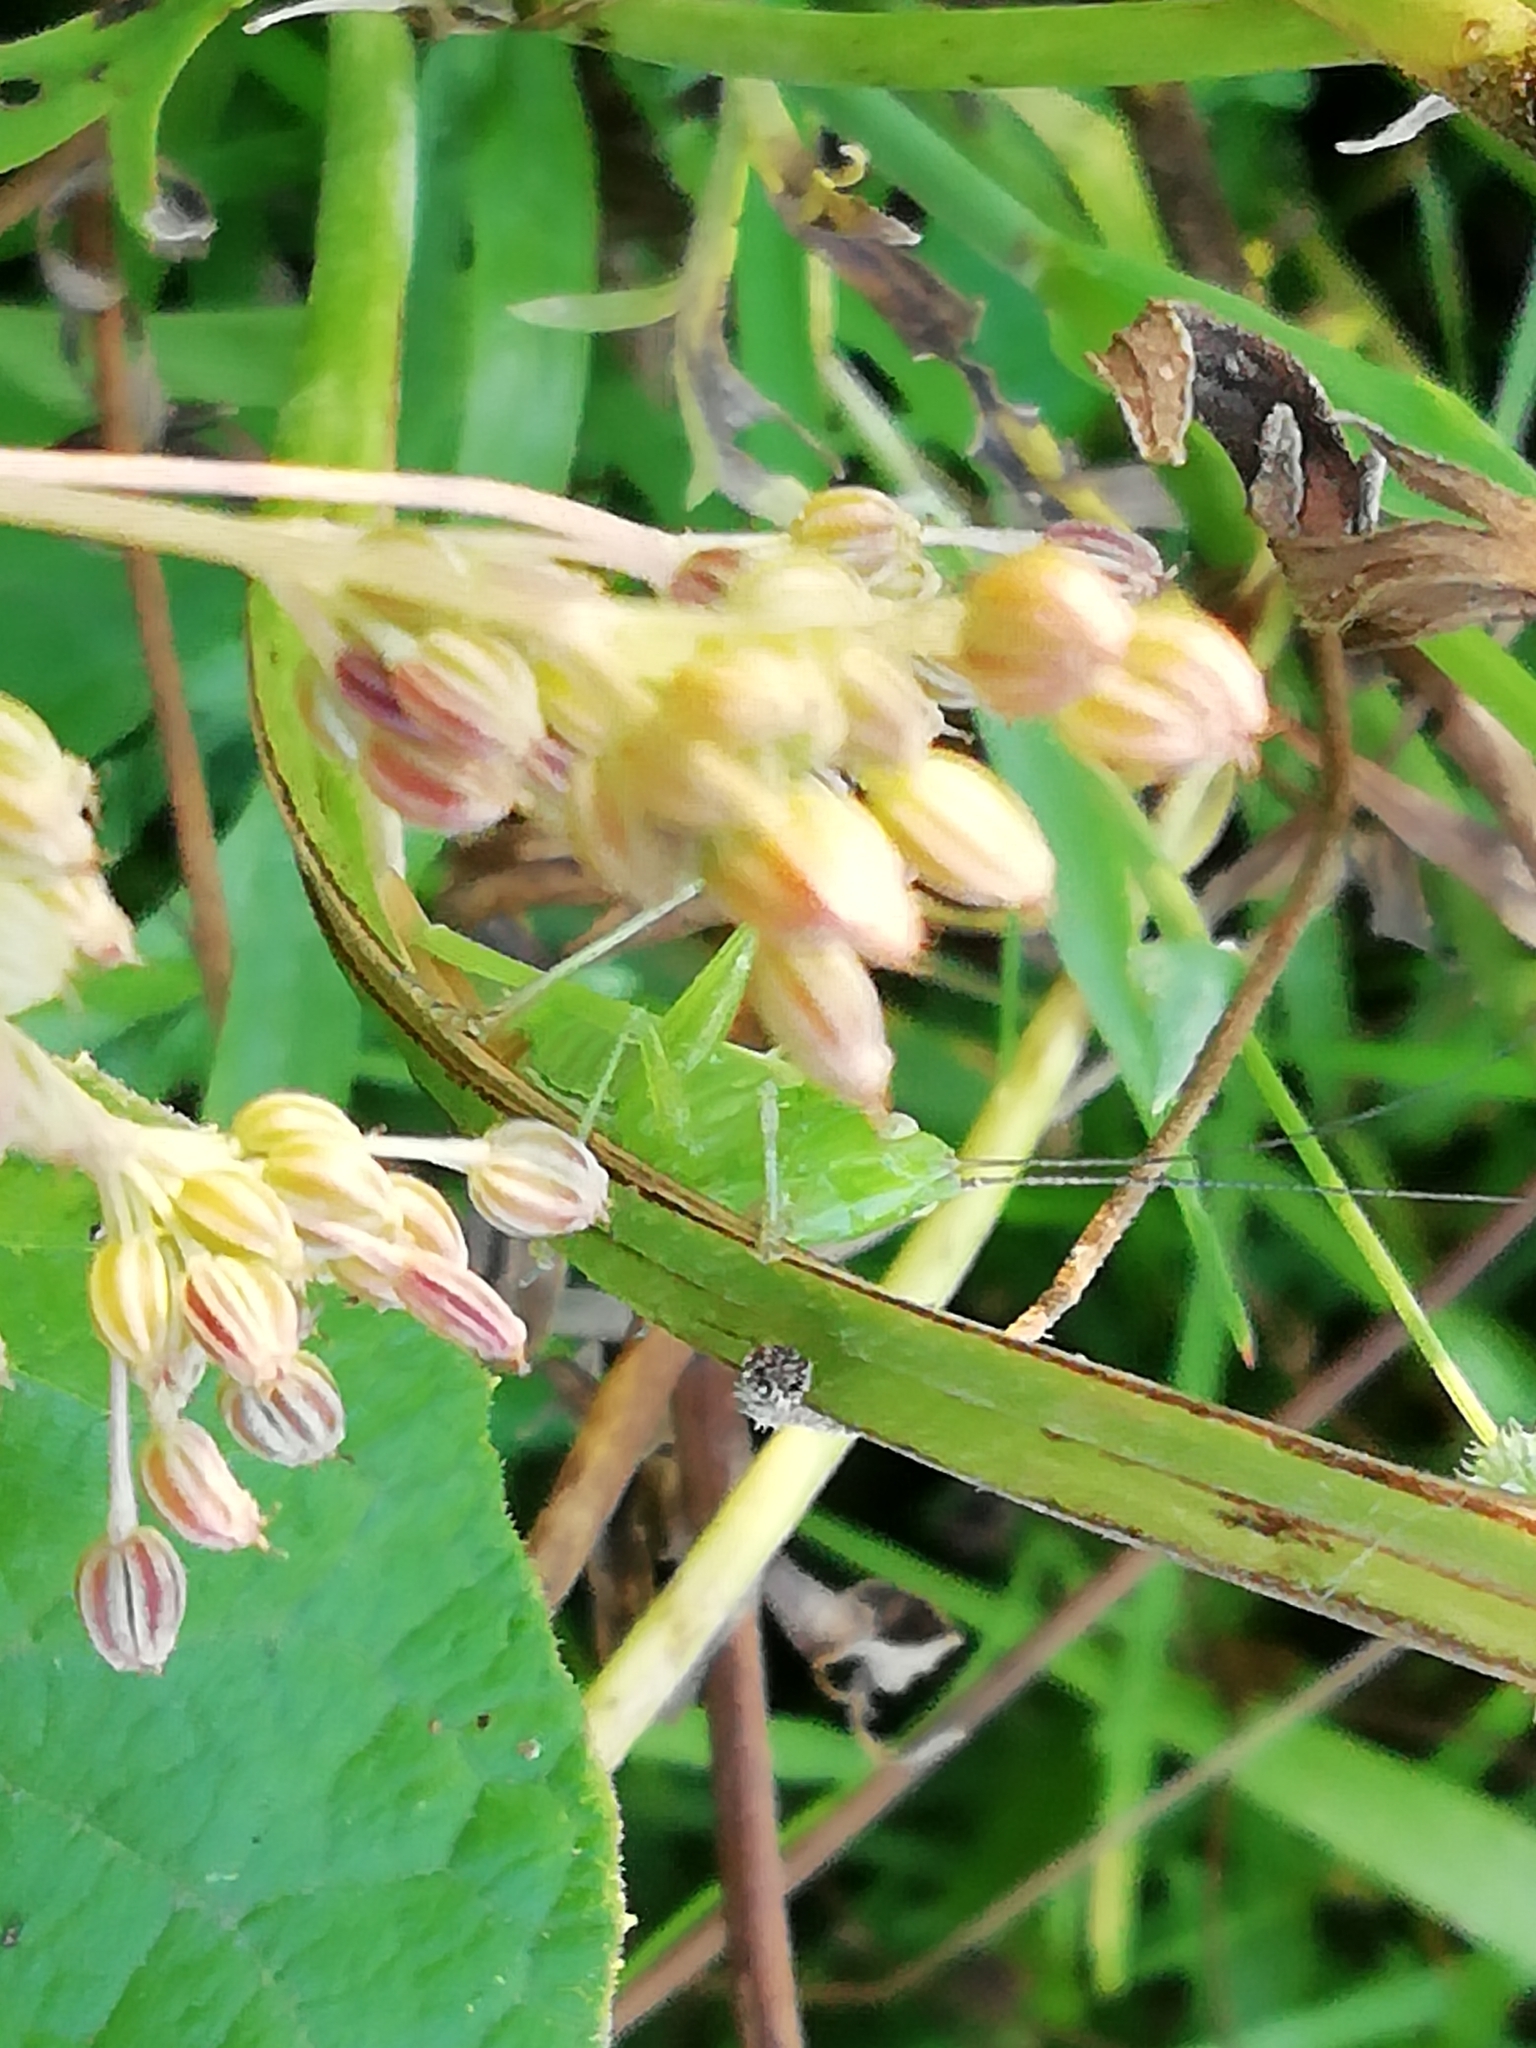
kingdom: Animalia
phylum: Arthropoda
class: Insecta
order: Orthoptera
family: Tettigoniidae
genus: Conocephalus
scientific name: Conocephalus fuscus
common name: Long-winged conehead
